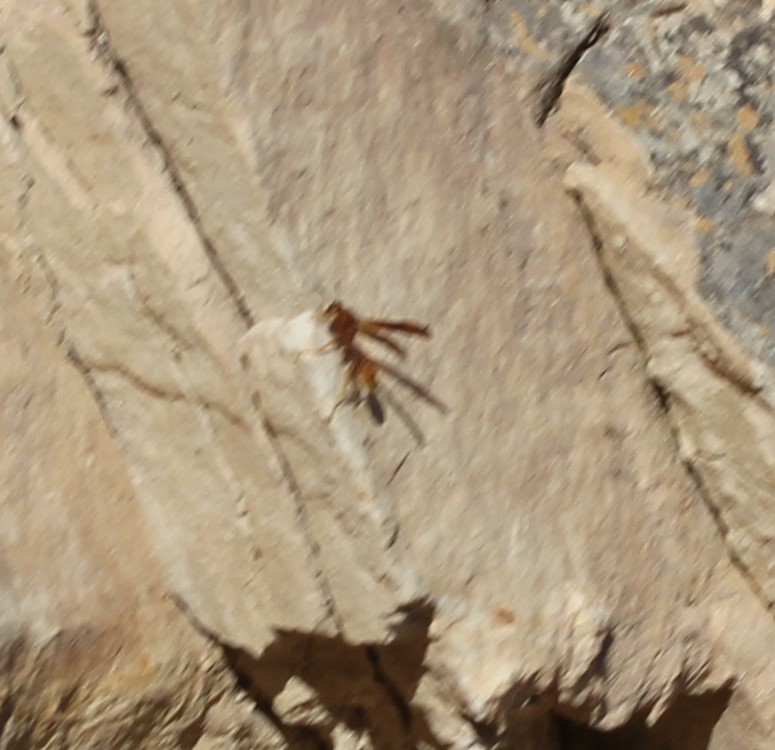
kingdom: Animalia
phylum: Arthropoda
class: Insecta
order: Hymenoptera
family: Eumenidae
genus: Polistes
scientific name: Polistes
